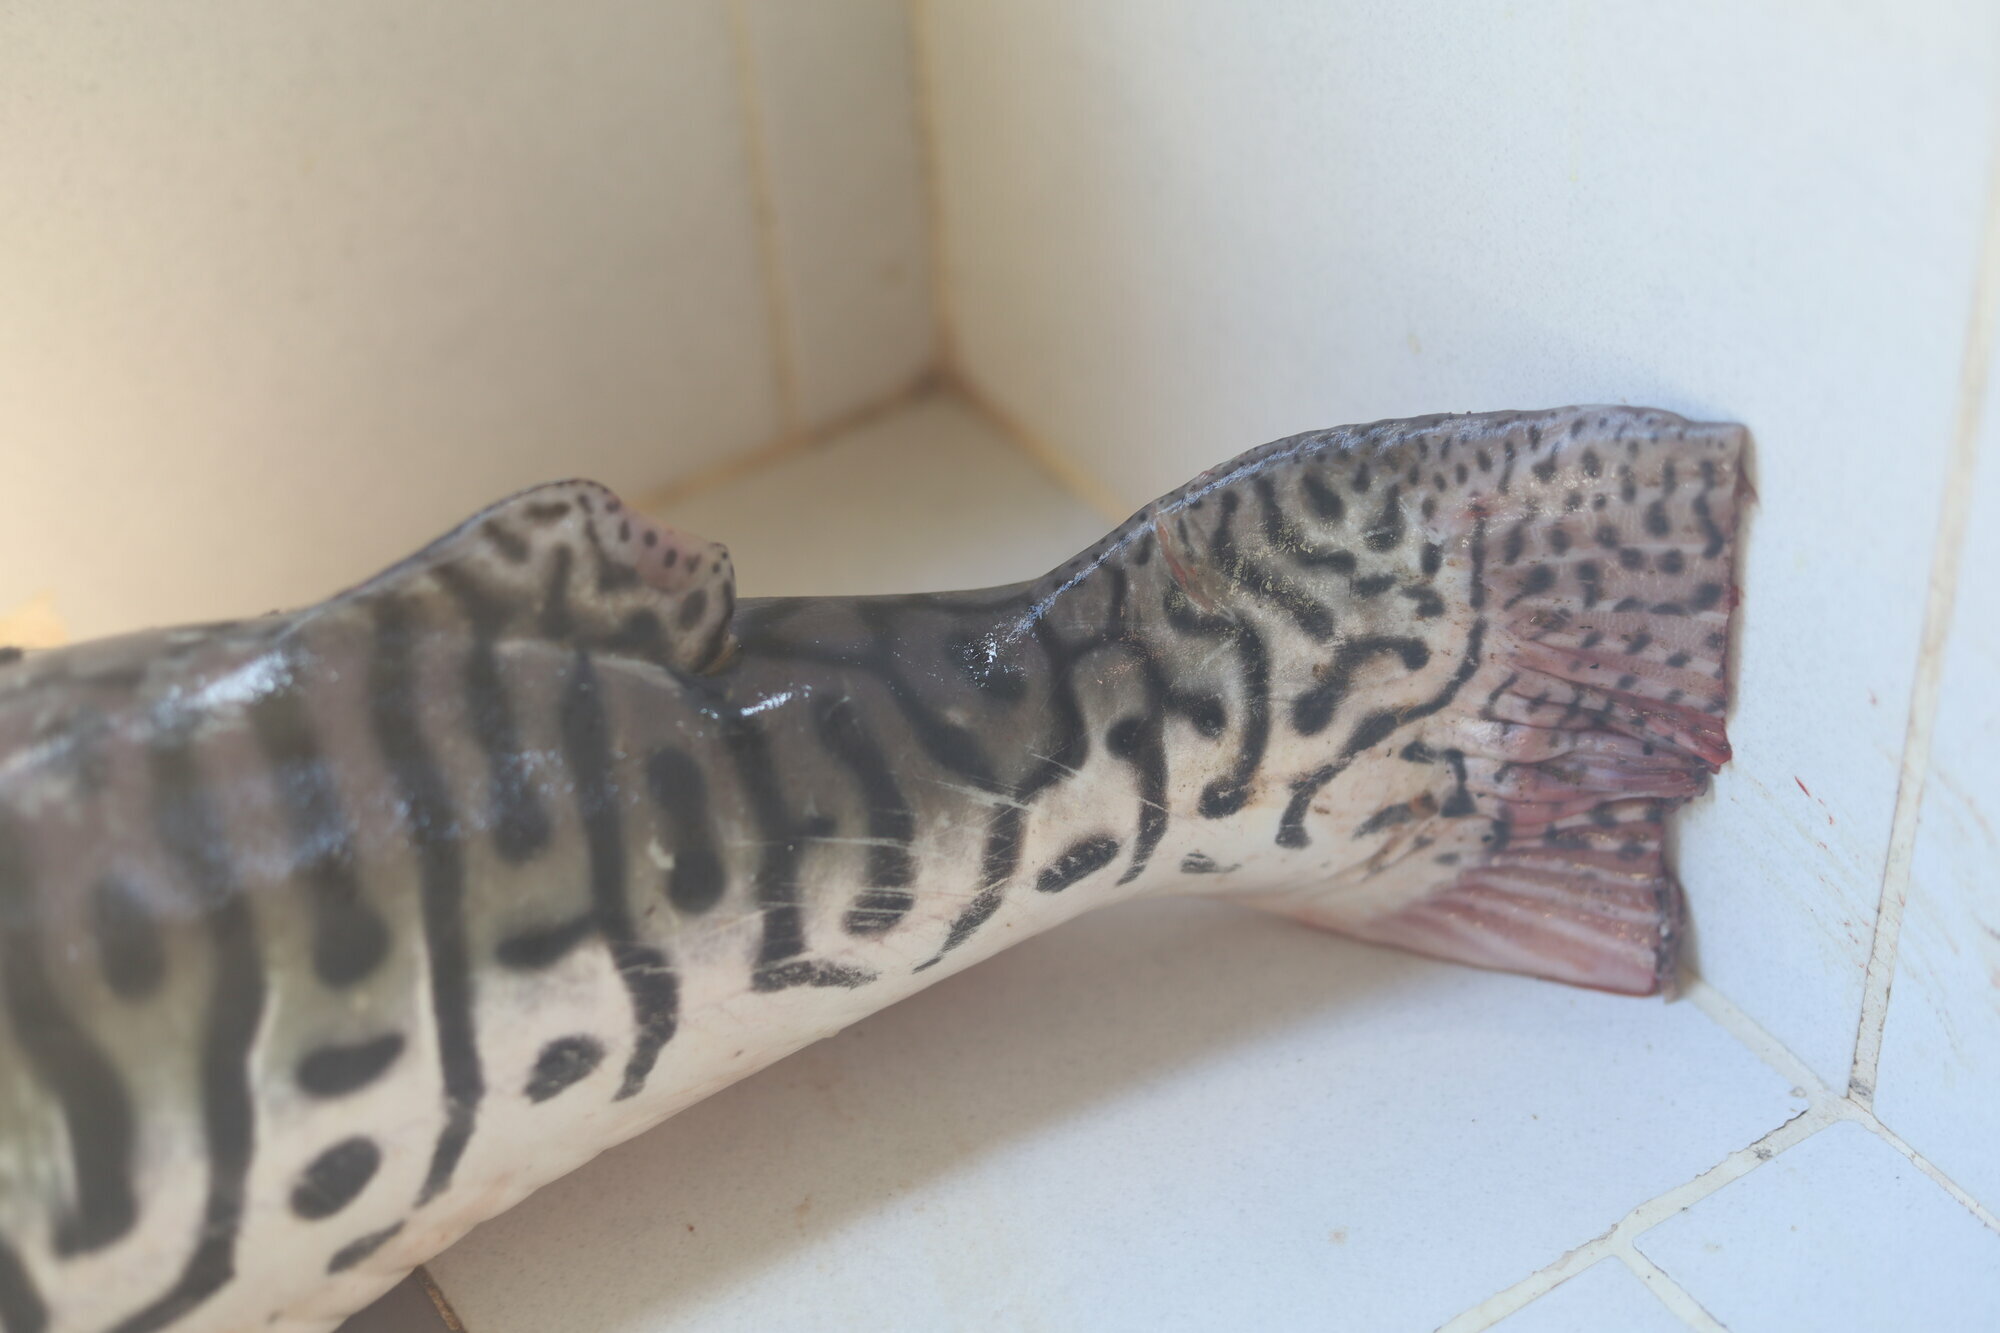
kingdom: Animalia
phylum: Chordata
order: Siluriformes
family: Pimelodidae
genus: Pseudoplatystoma
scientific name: Pseudoplatystoma tigrinum
